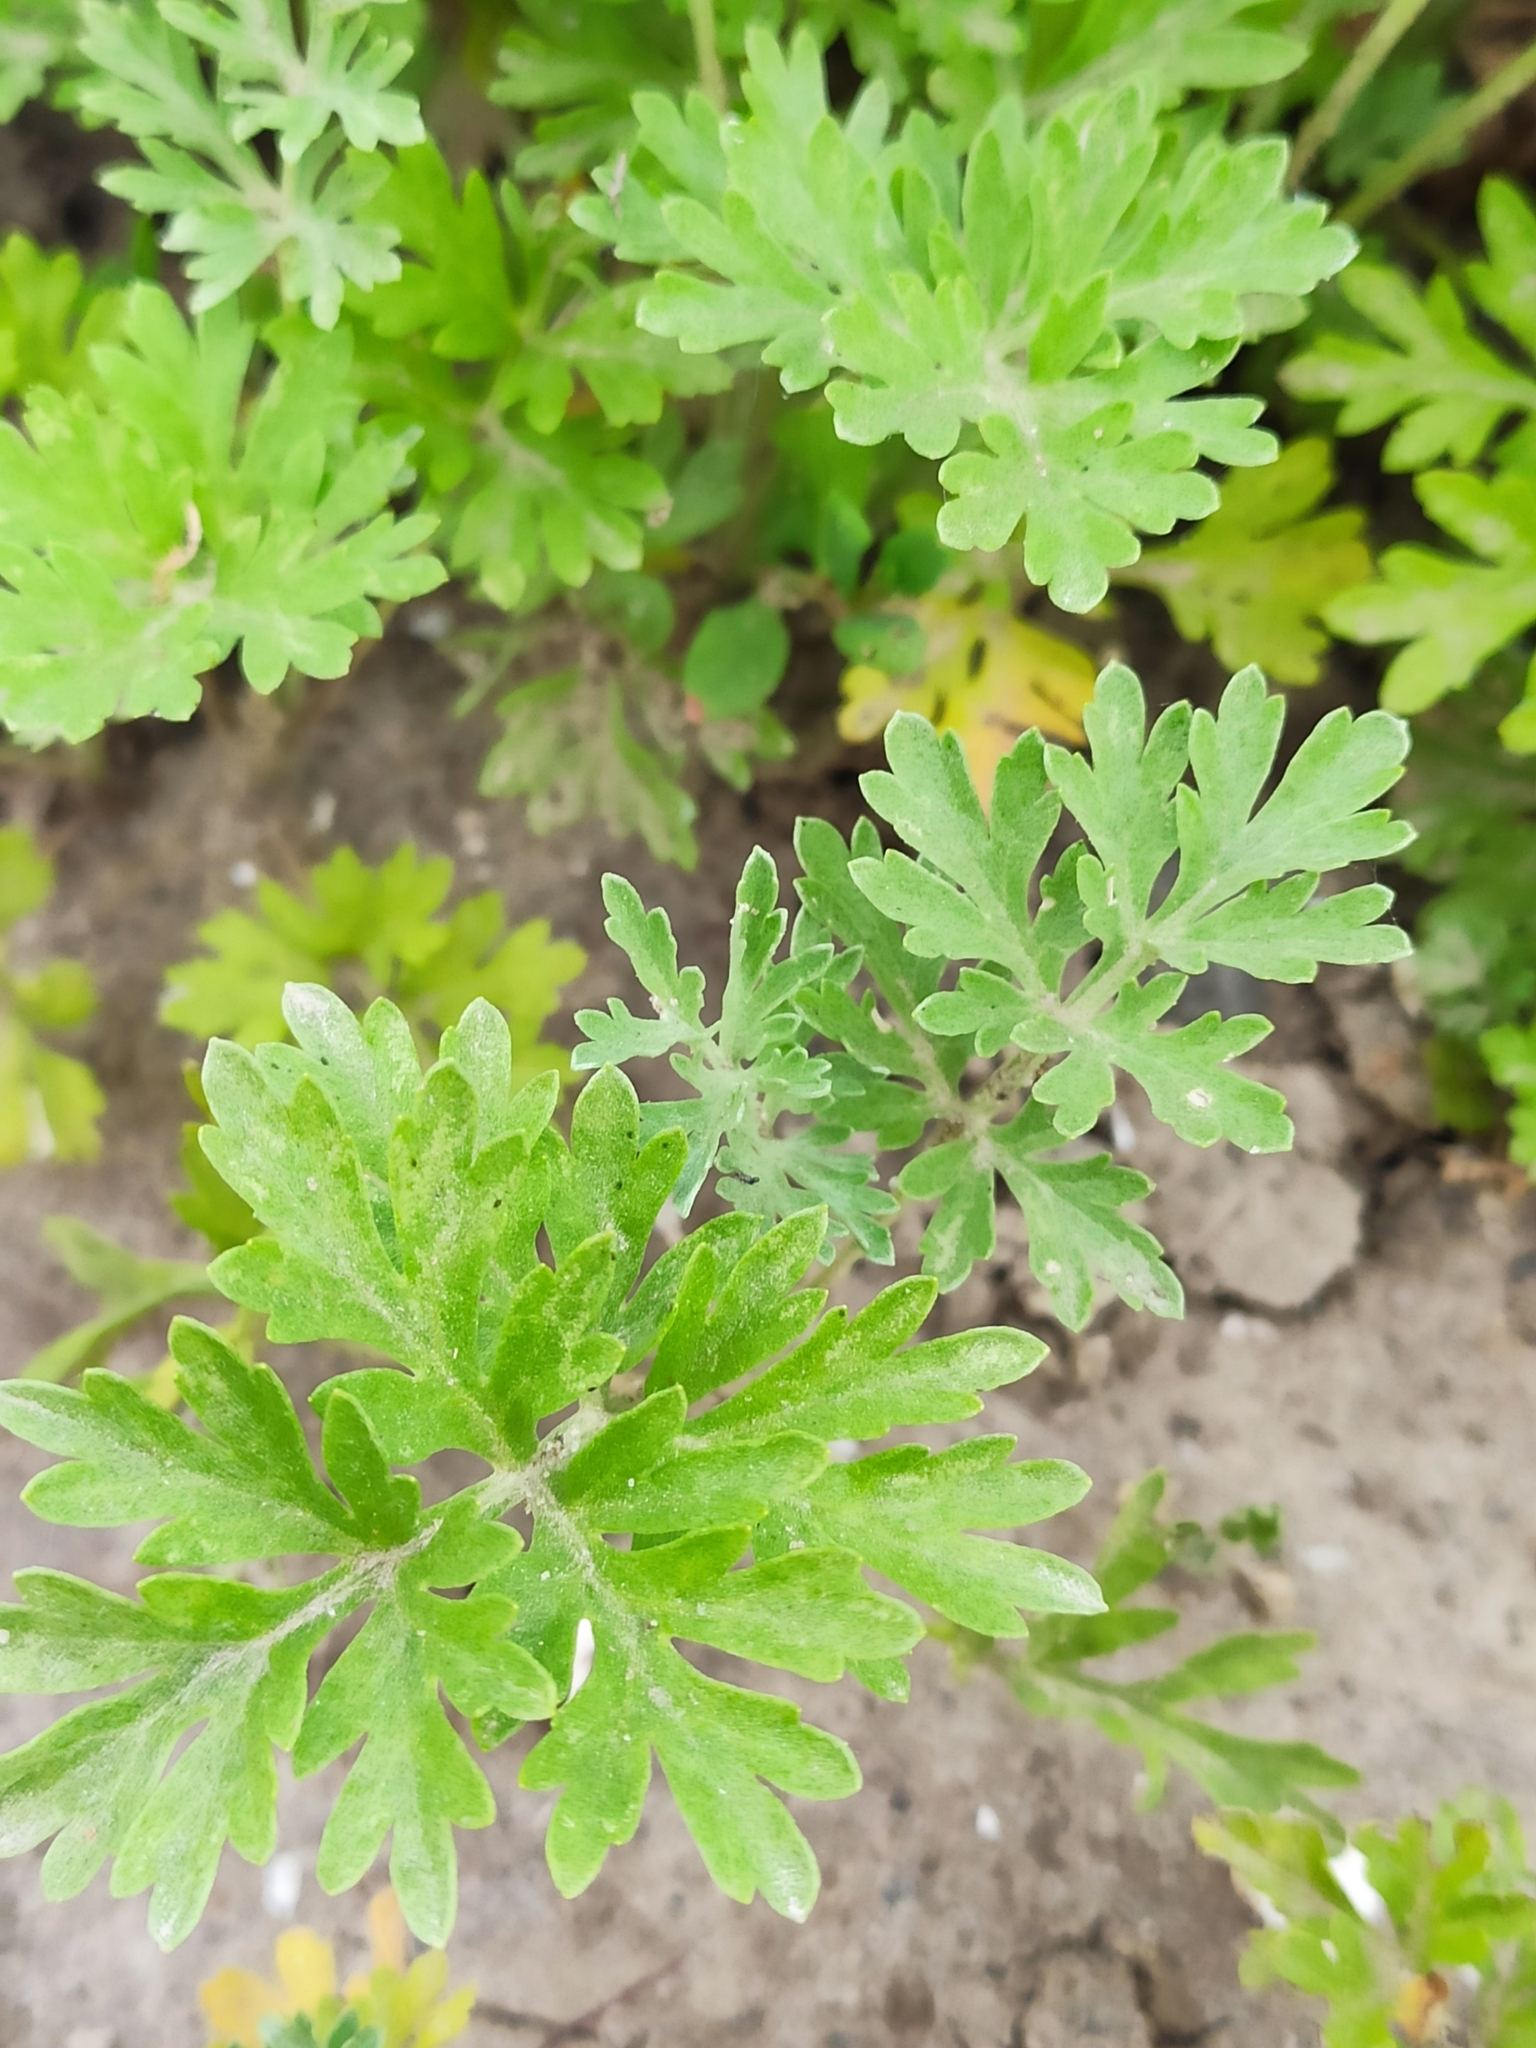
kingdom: Plantae
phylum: Tracheophyta
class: Magnoliopsida
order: Asterales
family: Asteraceae
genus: Artemisia
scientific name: Artemisia absinthium
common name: Wormwood
